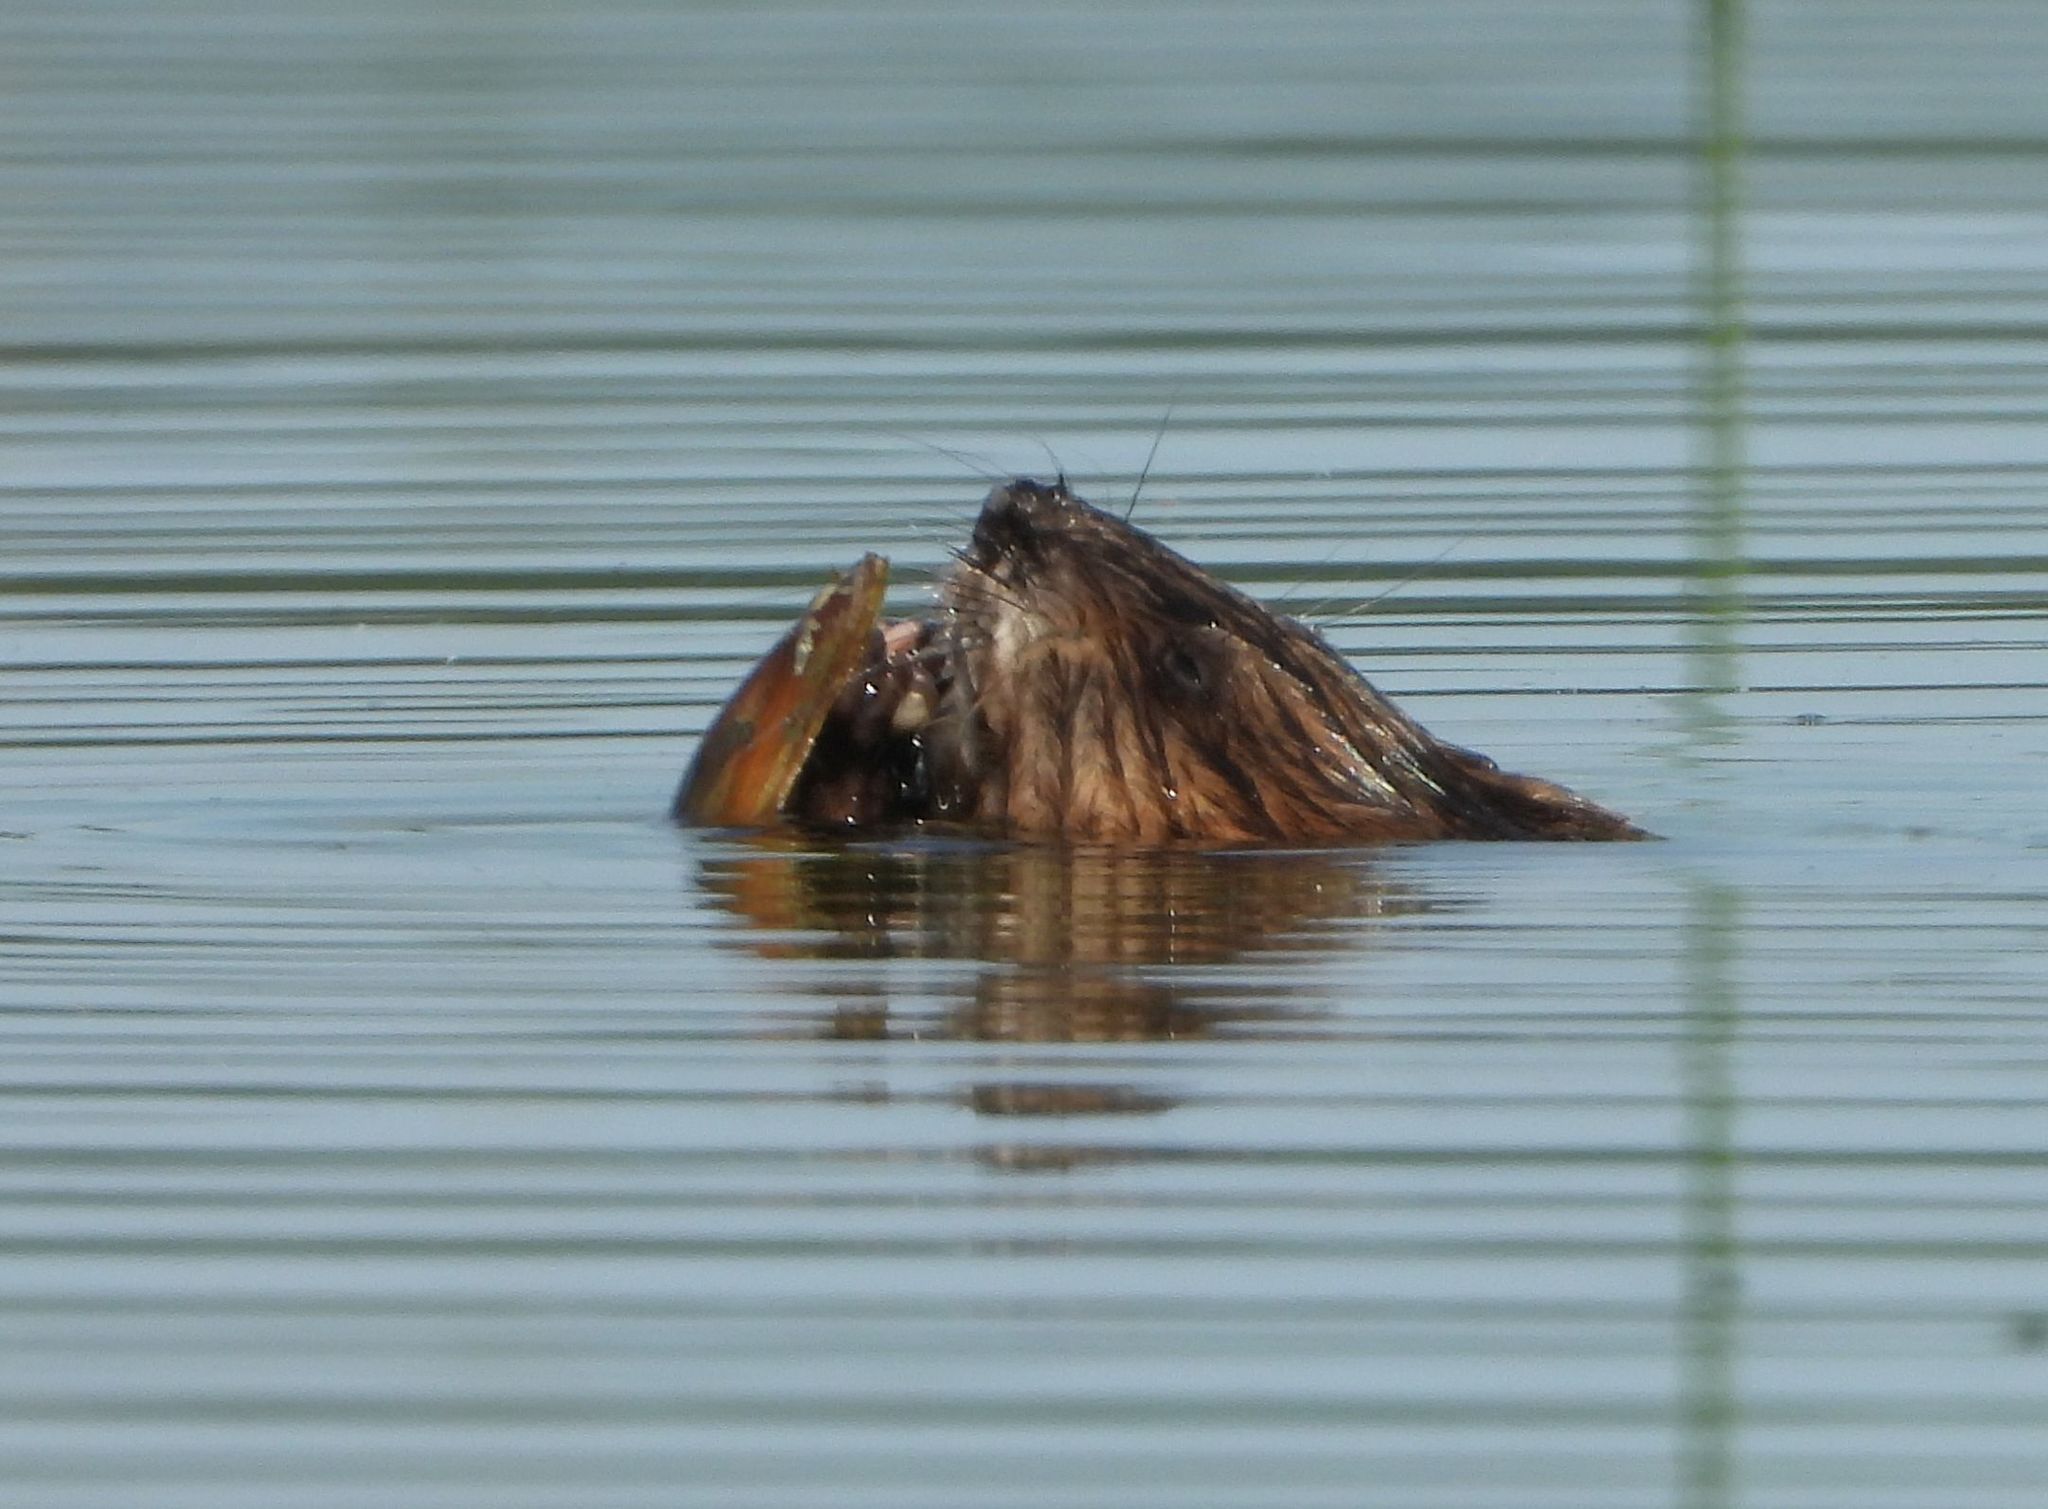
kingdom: Animalia
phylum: Chordata
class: Mammalia
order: Rodentia
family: Cricetidae
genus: Ondatra
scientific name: Ondatra zibethicus
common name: Muskrat
